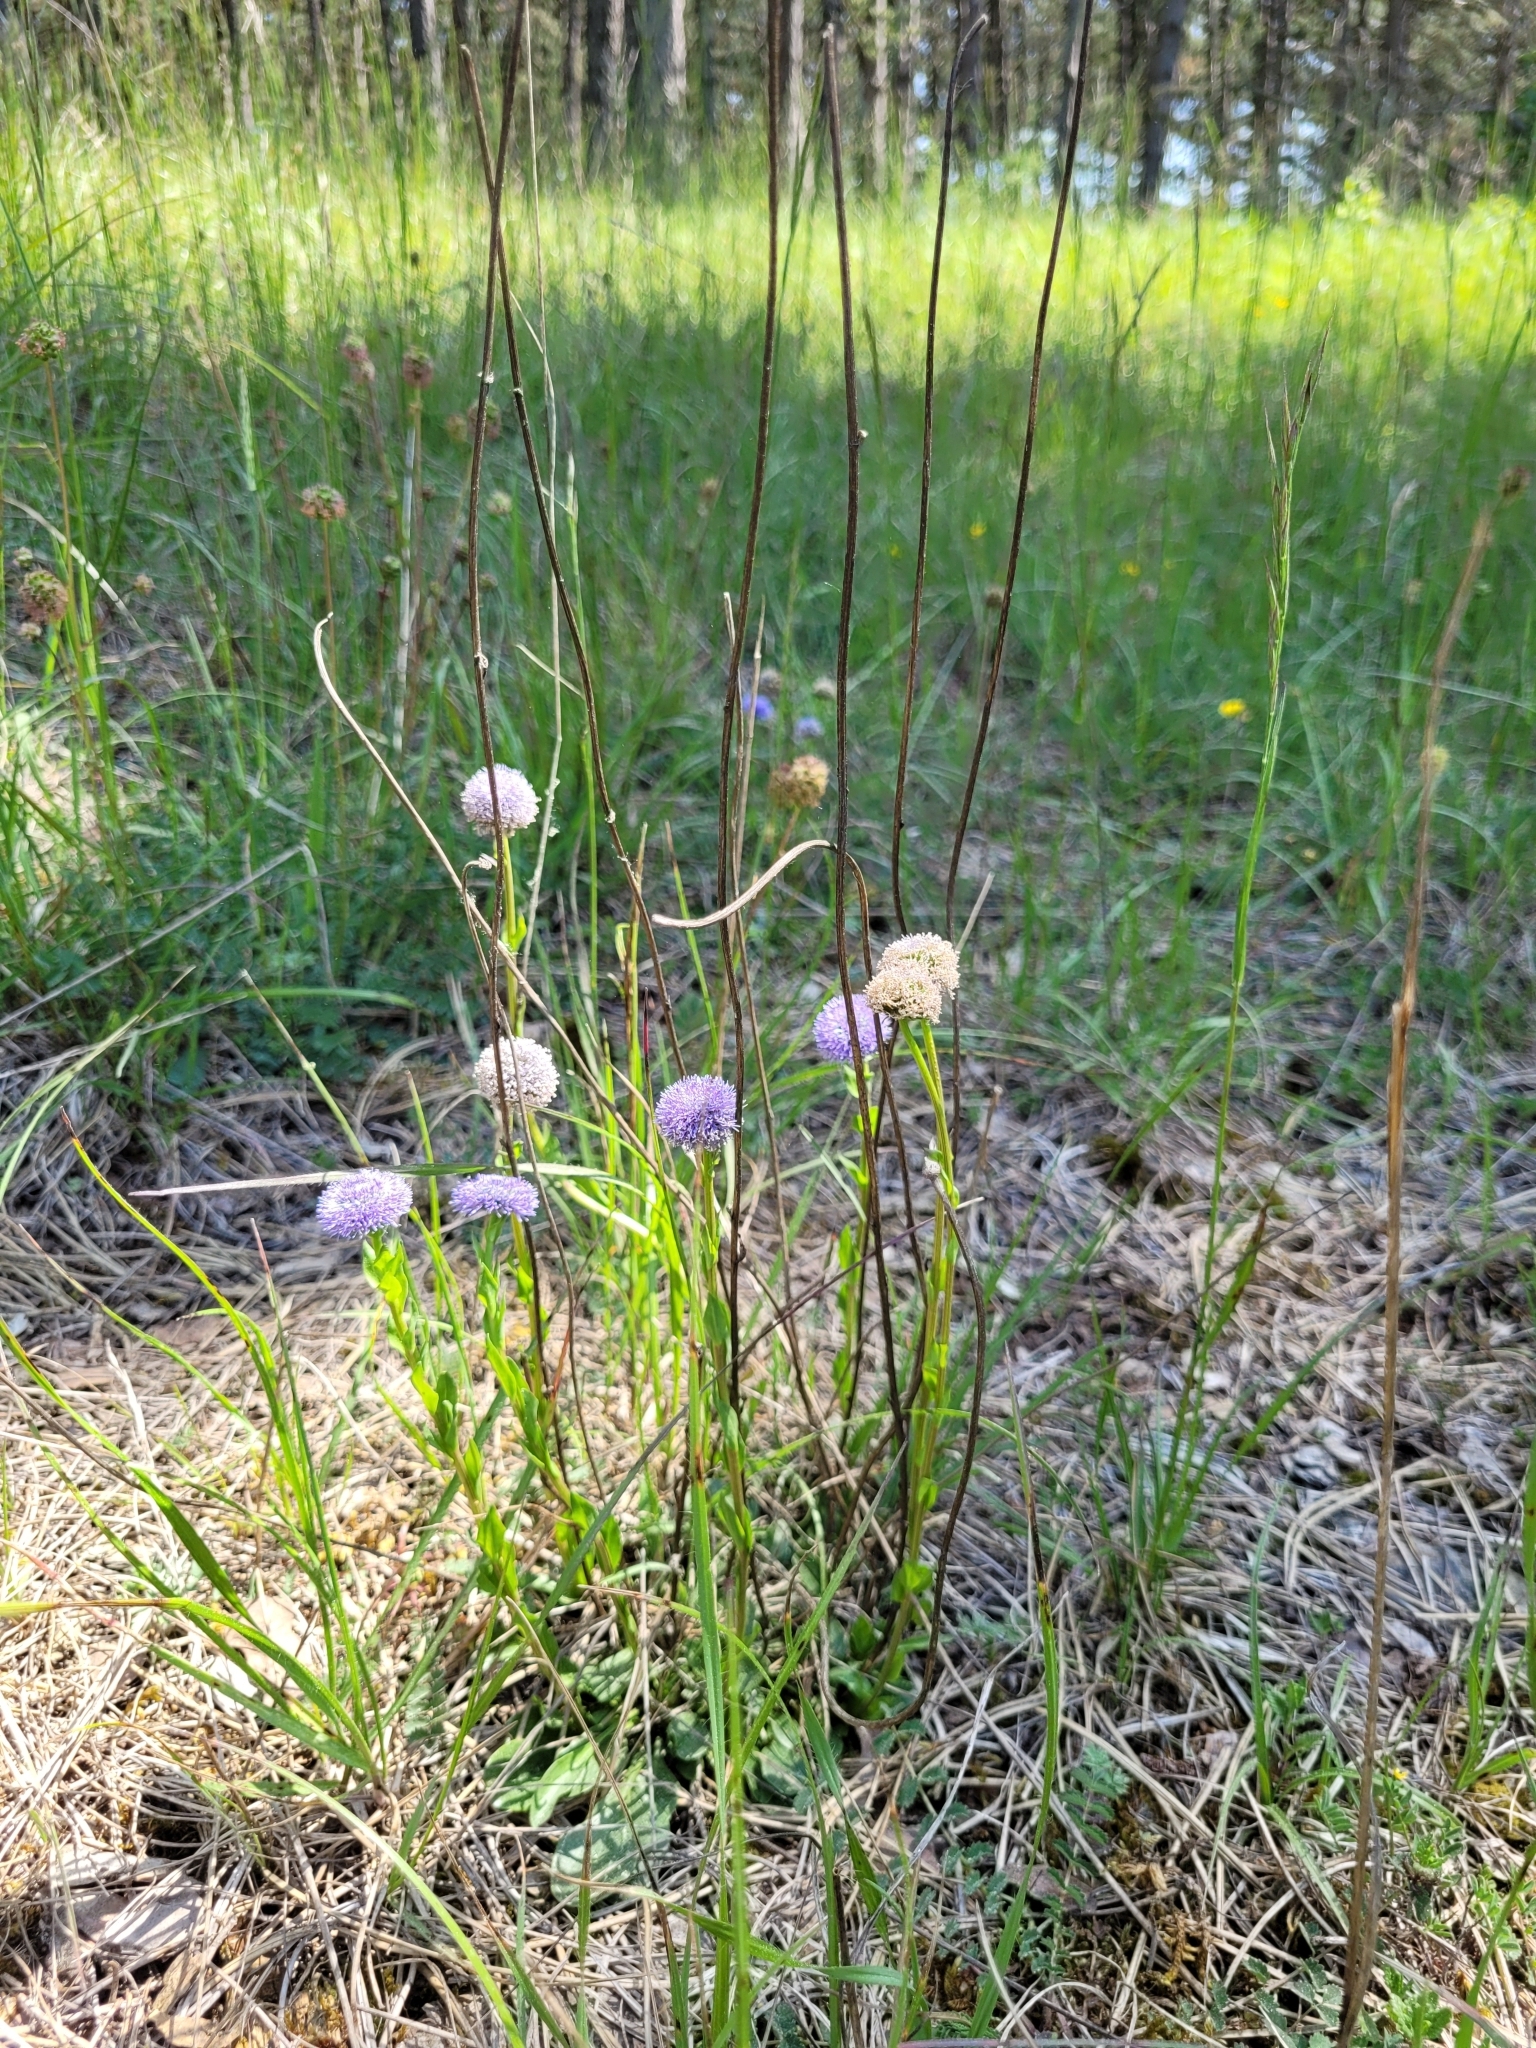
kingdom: Plantae
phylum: Tracheophyta
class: Magnoliopsida
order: Lamiales
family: Plantaginaceae
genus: Globularia
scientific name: Globularia bisnagarica
